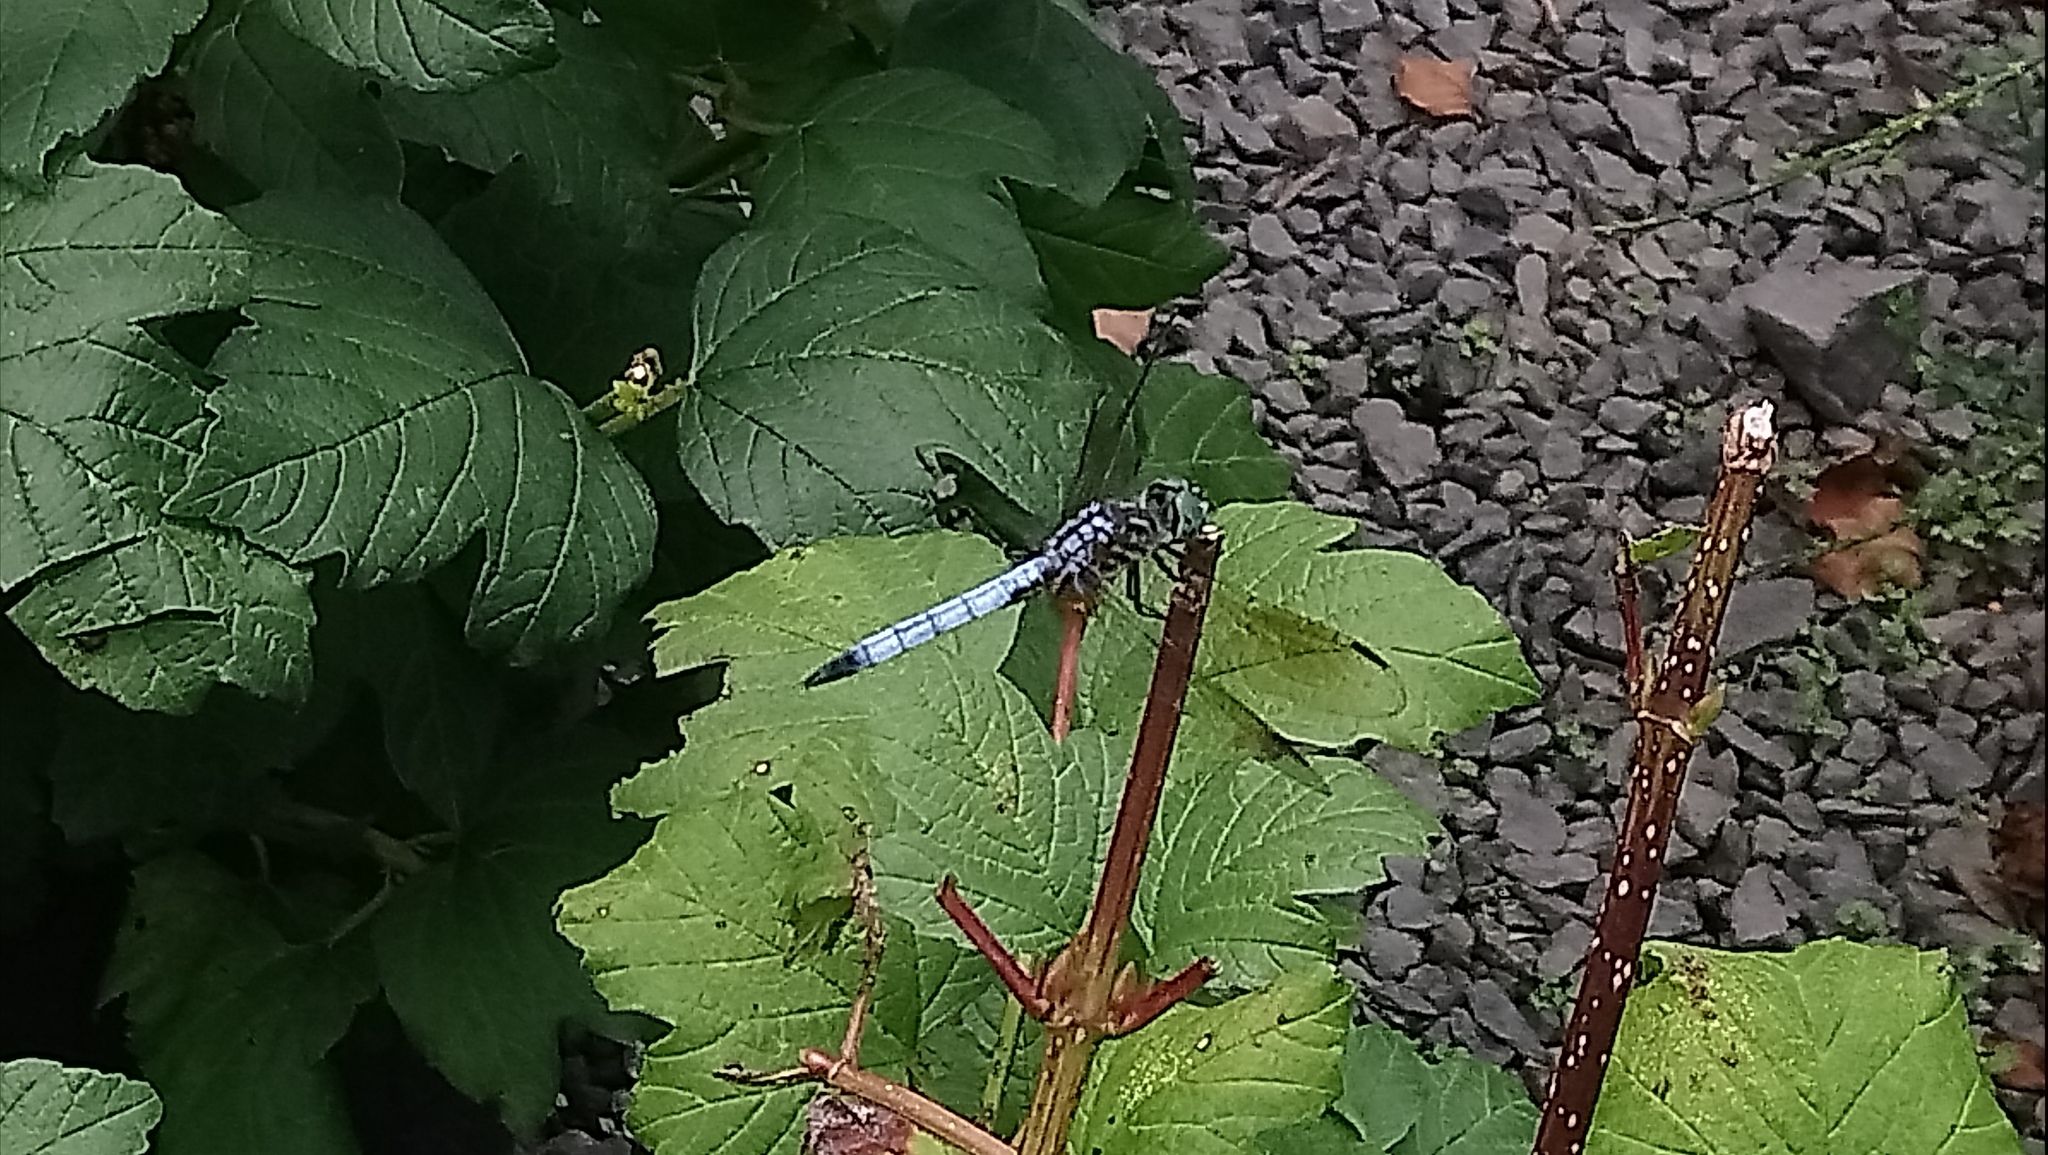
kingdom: Animalia
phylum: Arthropoda
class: Insecta
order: Odonata
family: Libellulidae
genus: Pachydiplax
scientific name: Pachydiplax longipennis
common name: Blue dasher
